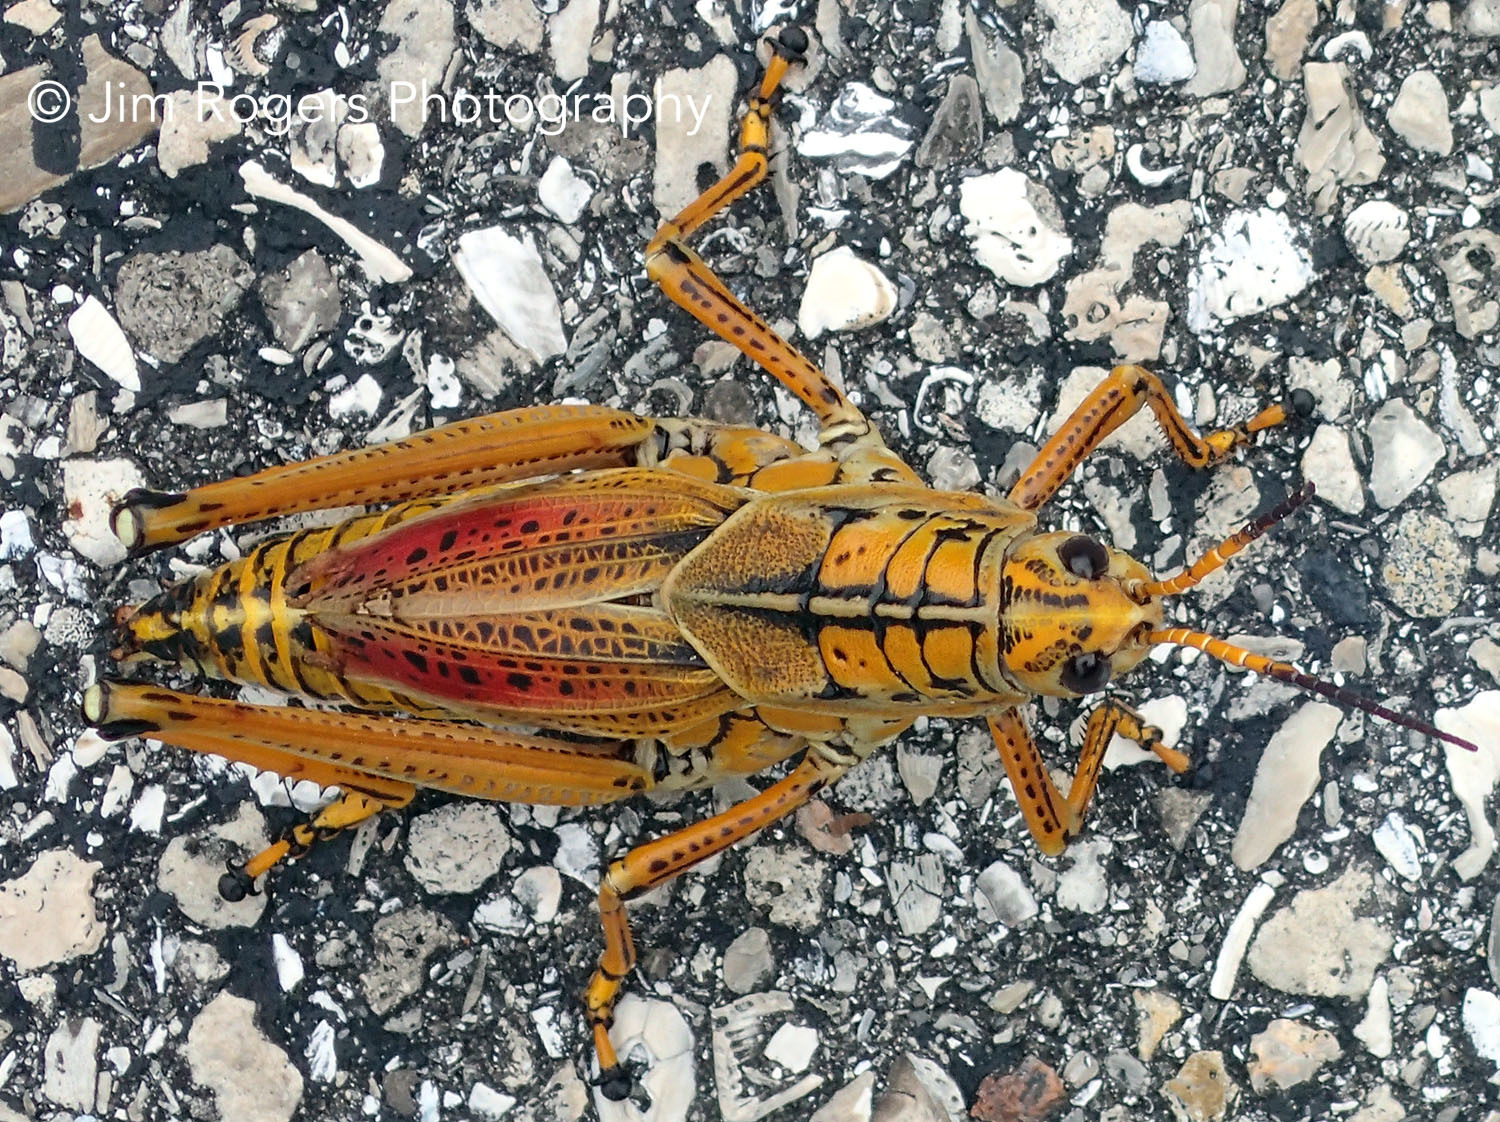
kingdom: Animalia
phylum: Arthropoda
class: Insecta
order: Orthoptera
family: Romaleidae
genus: Romalea
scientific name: Romalea microptera
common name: Eastern lubber grasshopper
